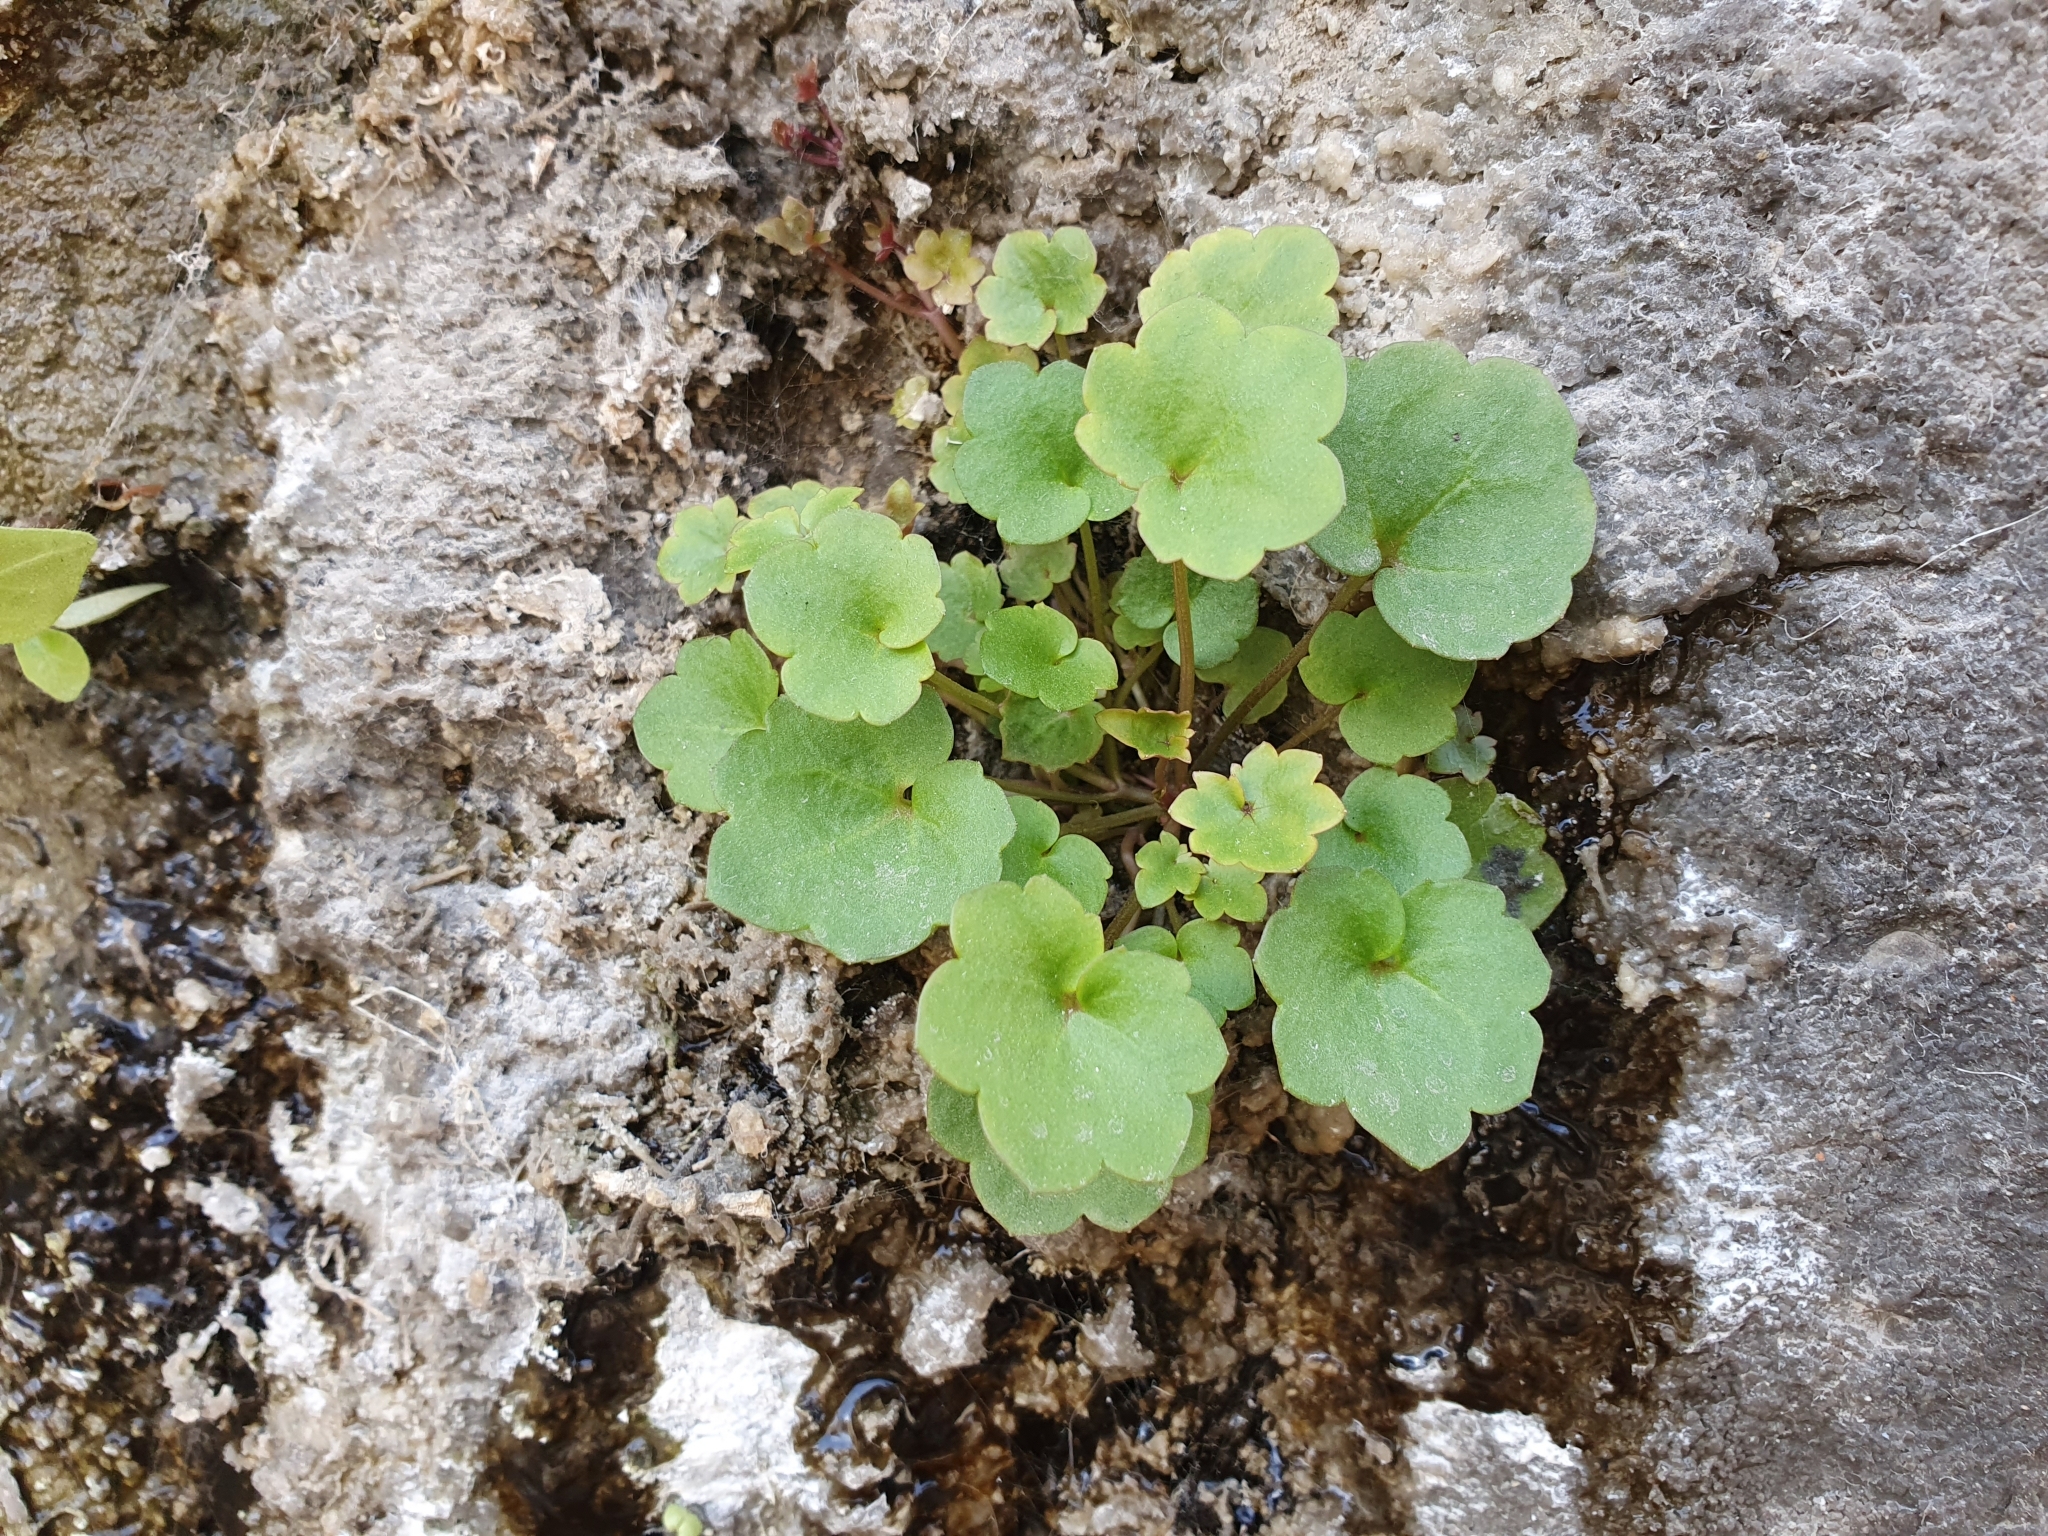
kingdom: Plantae
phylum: Tracheophyta
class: Magnoliopsida
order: Lamiales
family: Plantaginaceae
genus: Cymbalaria
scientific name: Cymbalaria muralis
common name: Ivy-leaved toadflax
